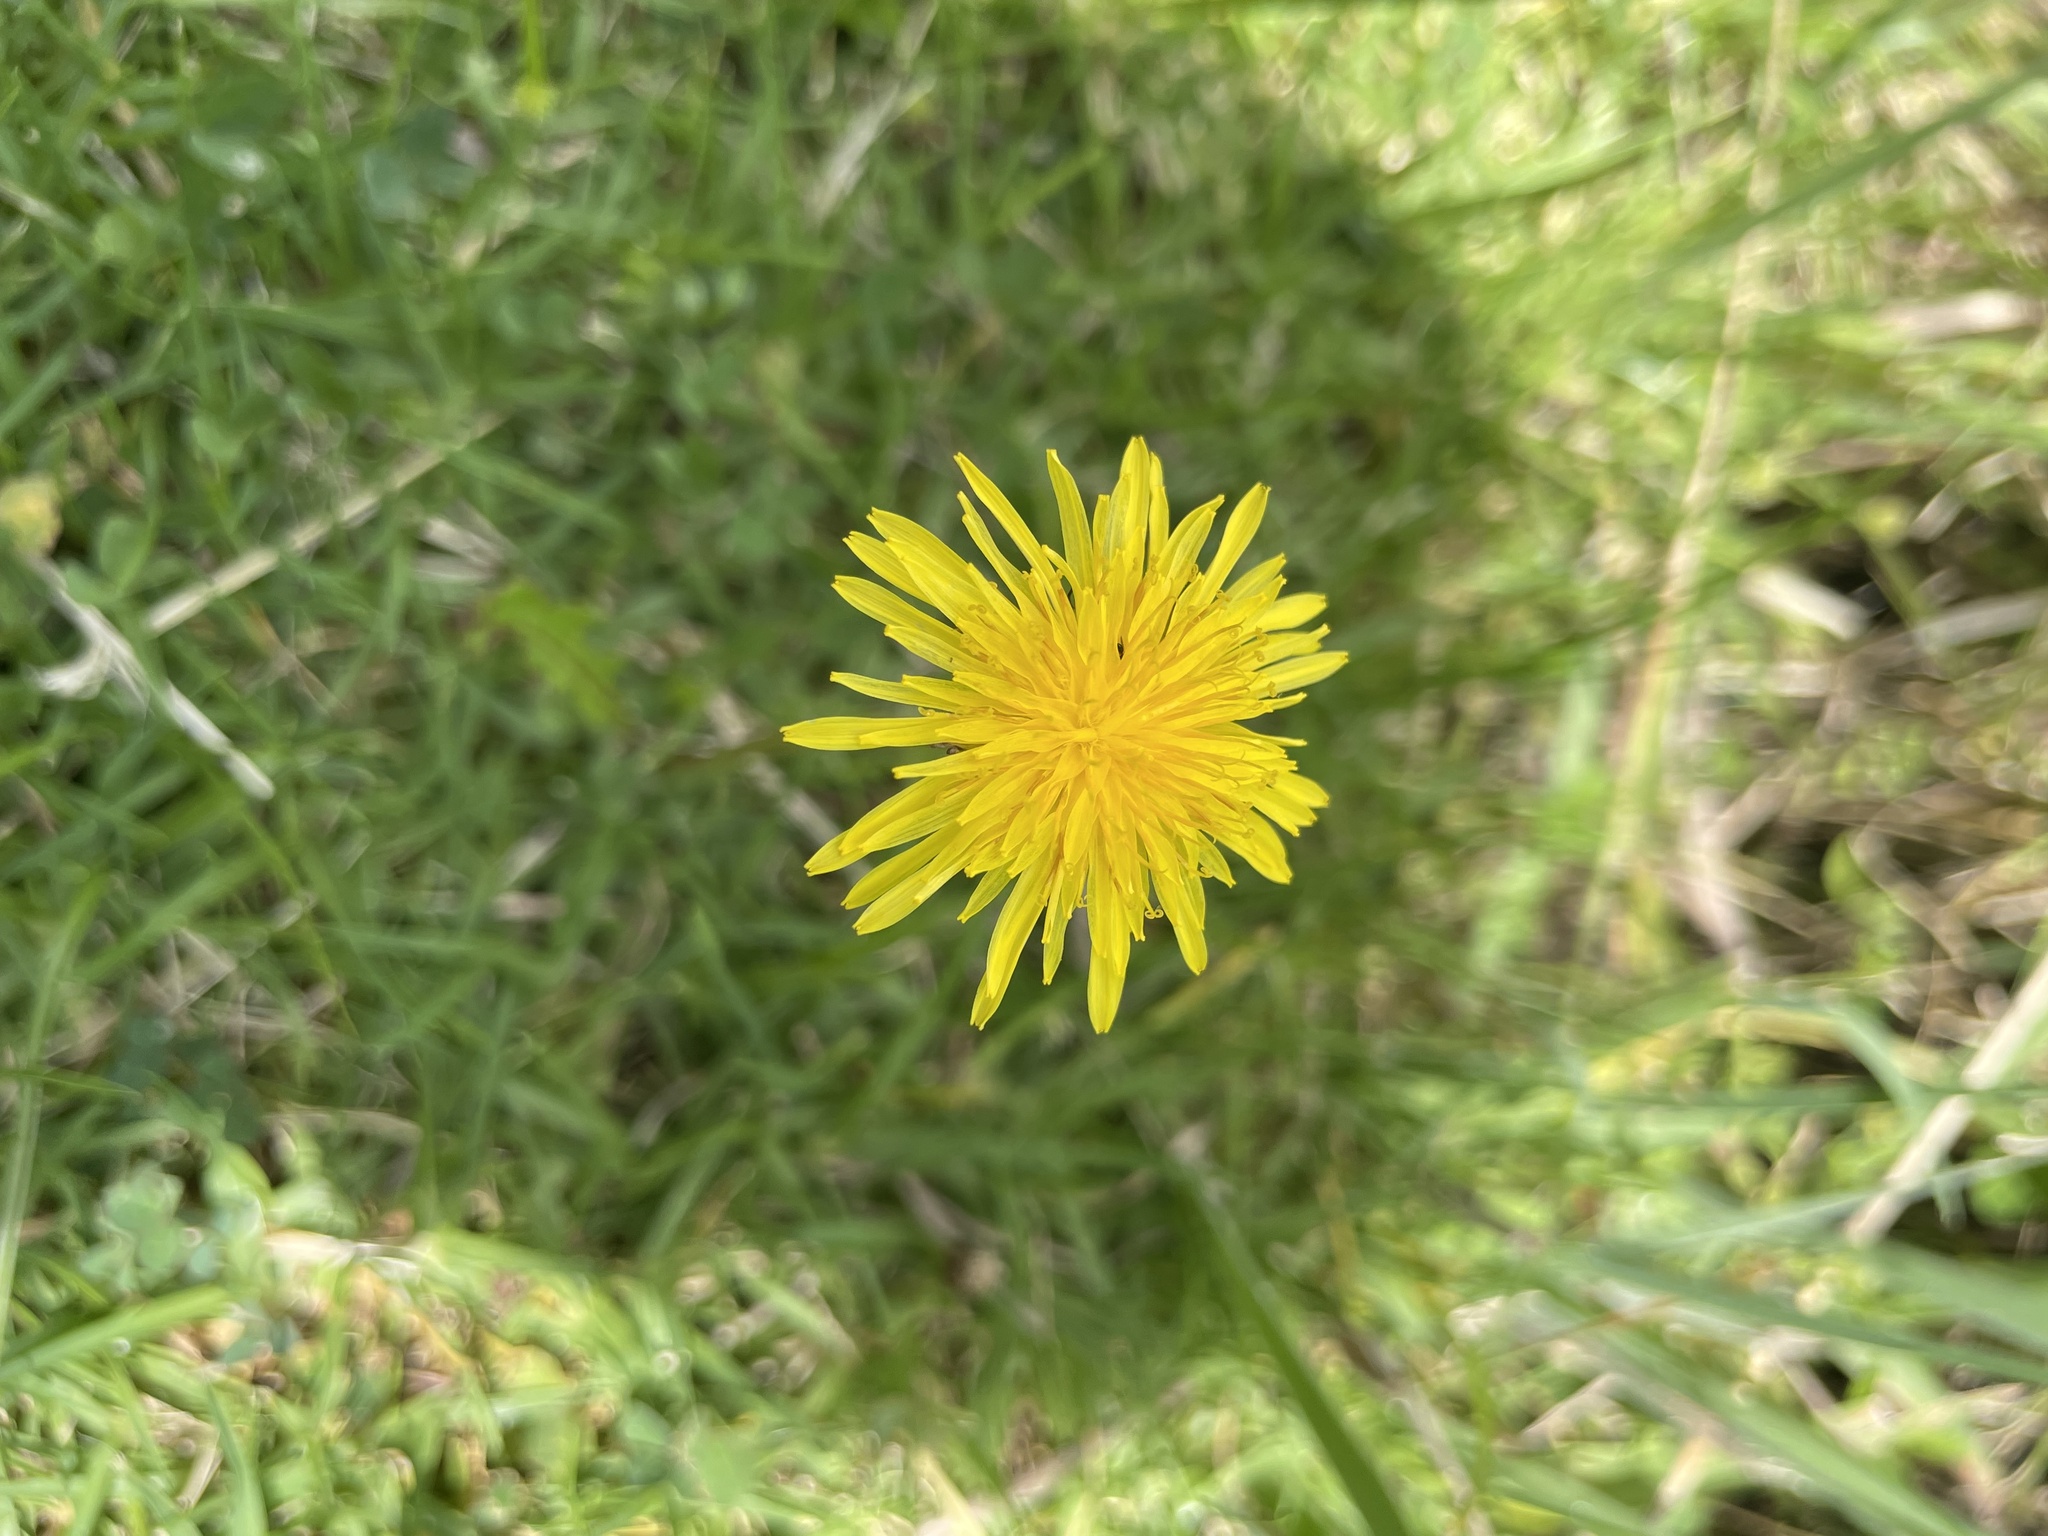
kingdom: Plantae
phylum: Tracheophyta
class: Magnoliopsida
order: Asterales
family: Asteraceae
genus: Taraxacum
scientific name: Taraxacum officinale
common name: Common dandelion
